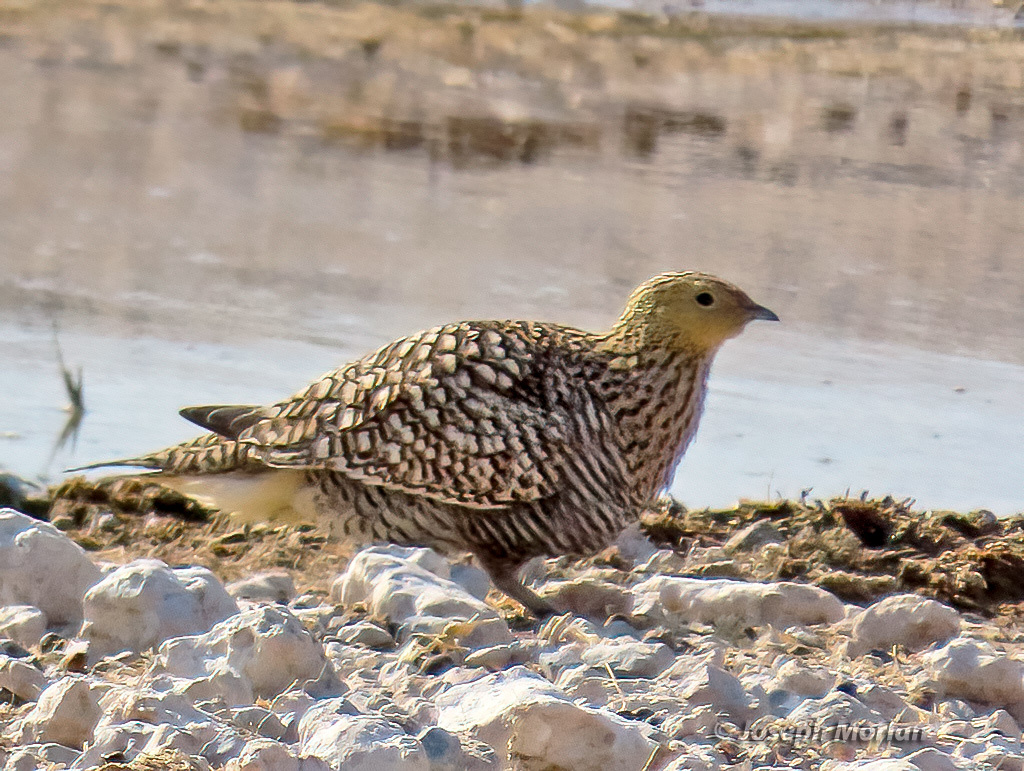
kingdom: Animalia
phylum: Chordata
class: Aves
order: Pteroclidiformes
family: Pteroclididae
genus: Pterocles
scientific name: Pterocles namaqua
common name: Namaqua sandgrouse
